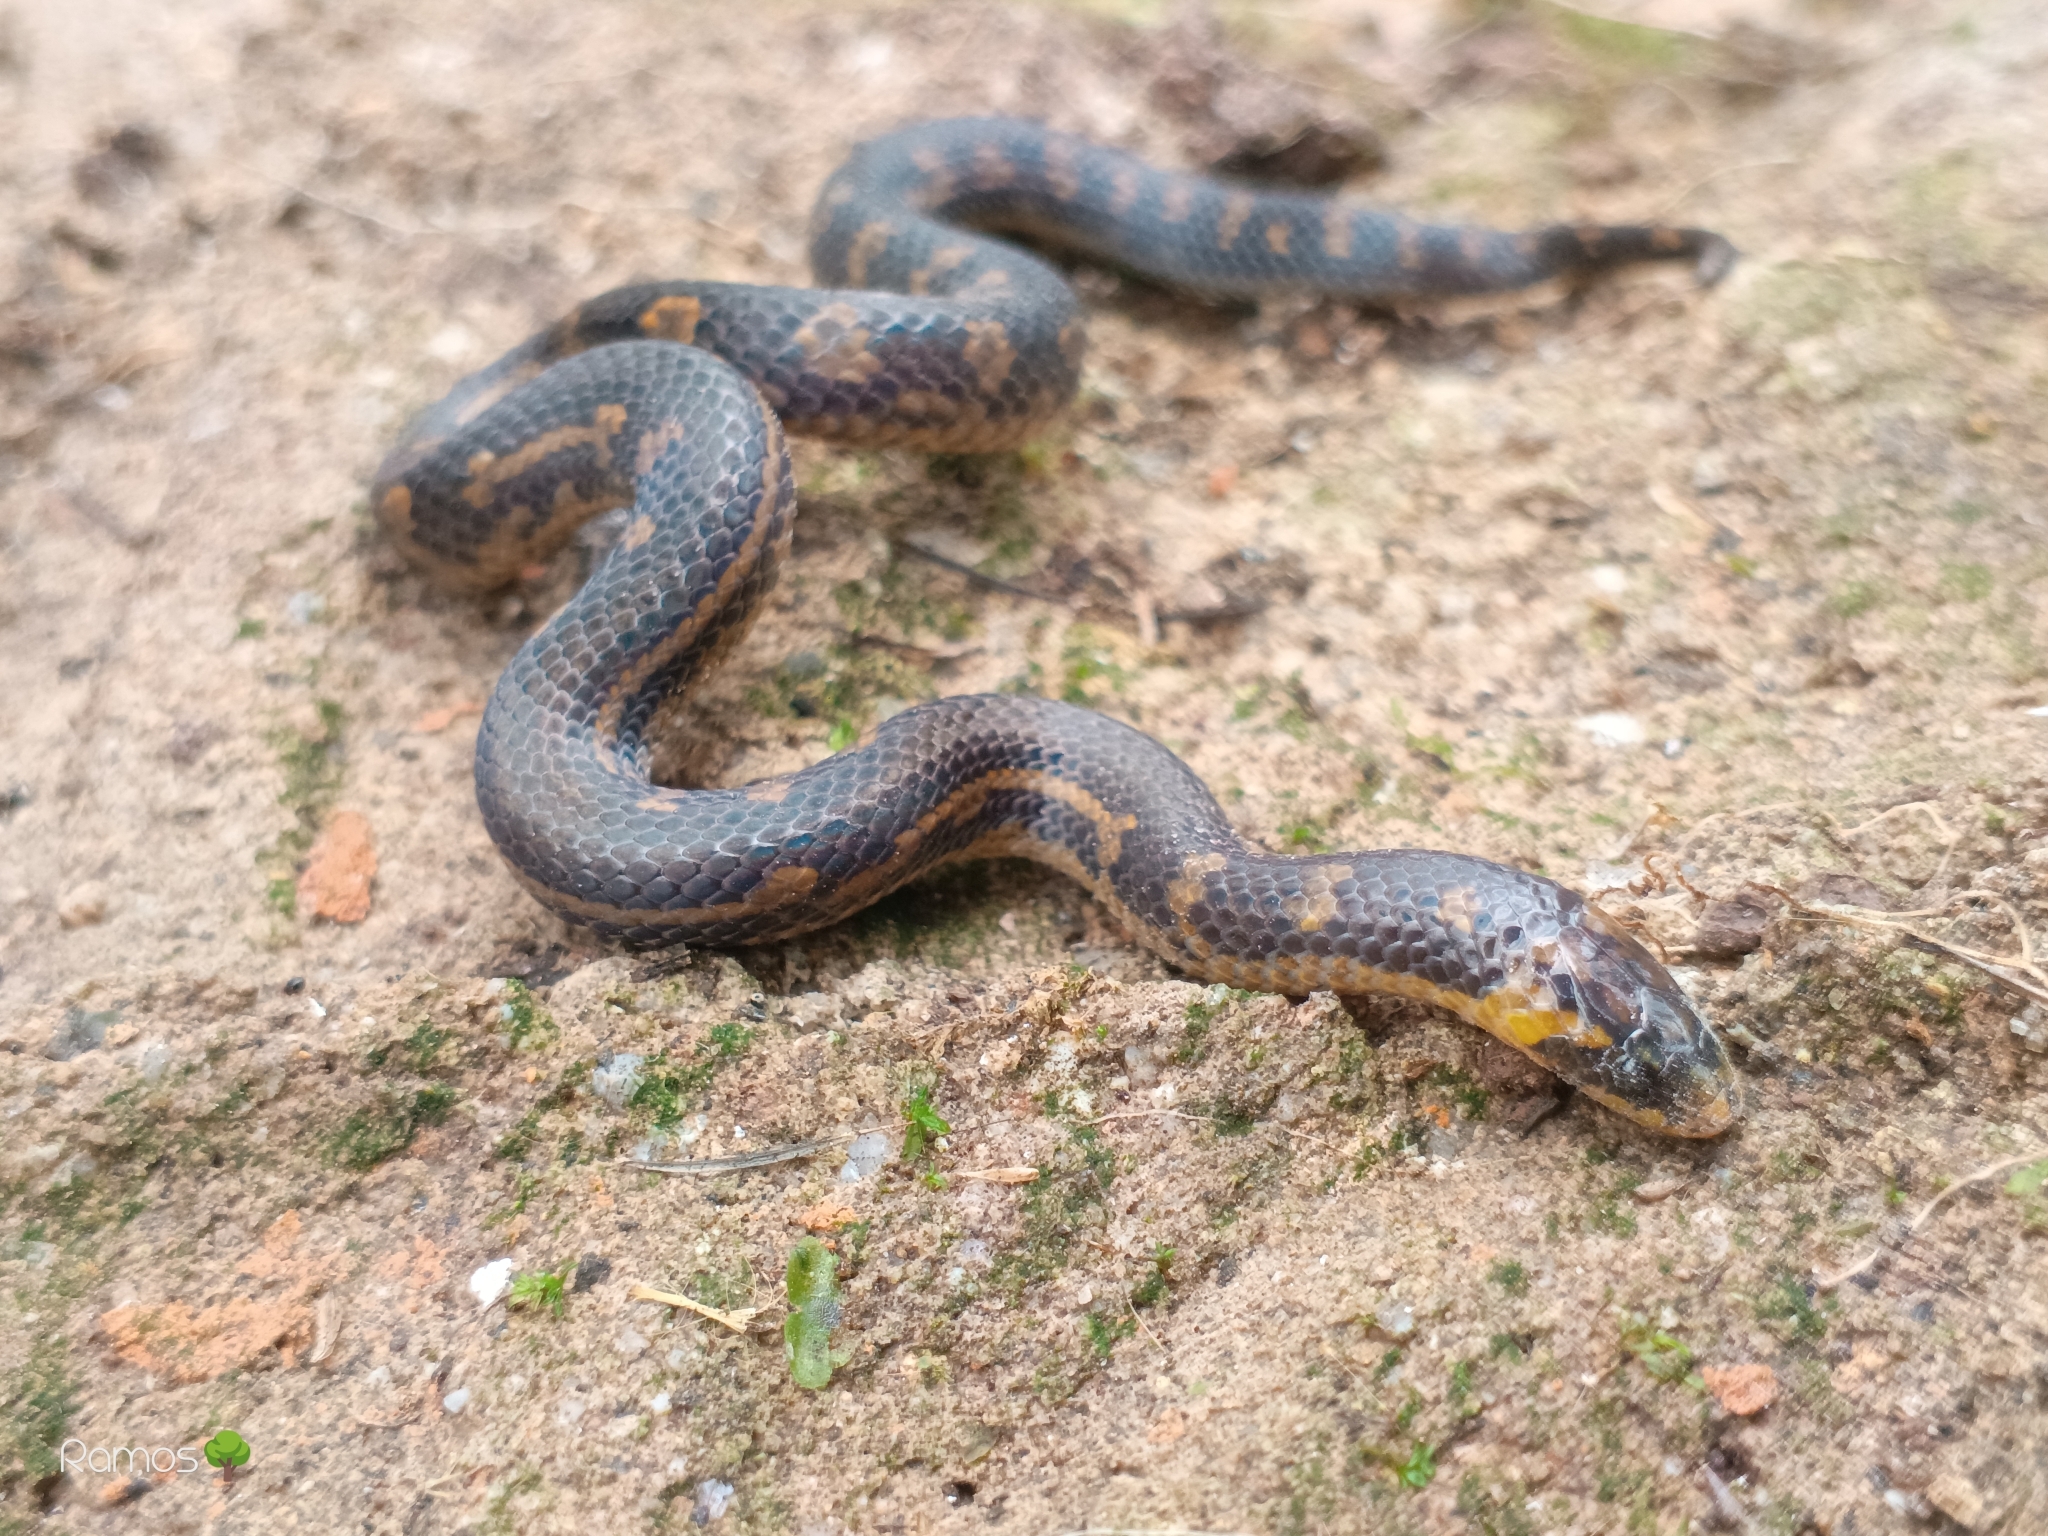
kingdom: Animalia
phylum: Chordata
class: Squamata
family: Colubridae
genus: Atractus
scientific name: Atractus crassicaudatus
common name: Thickhead ground snake
